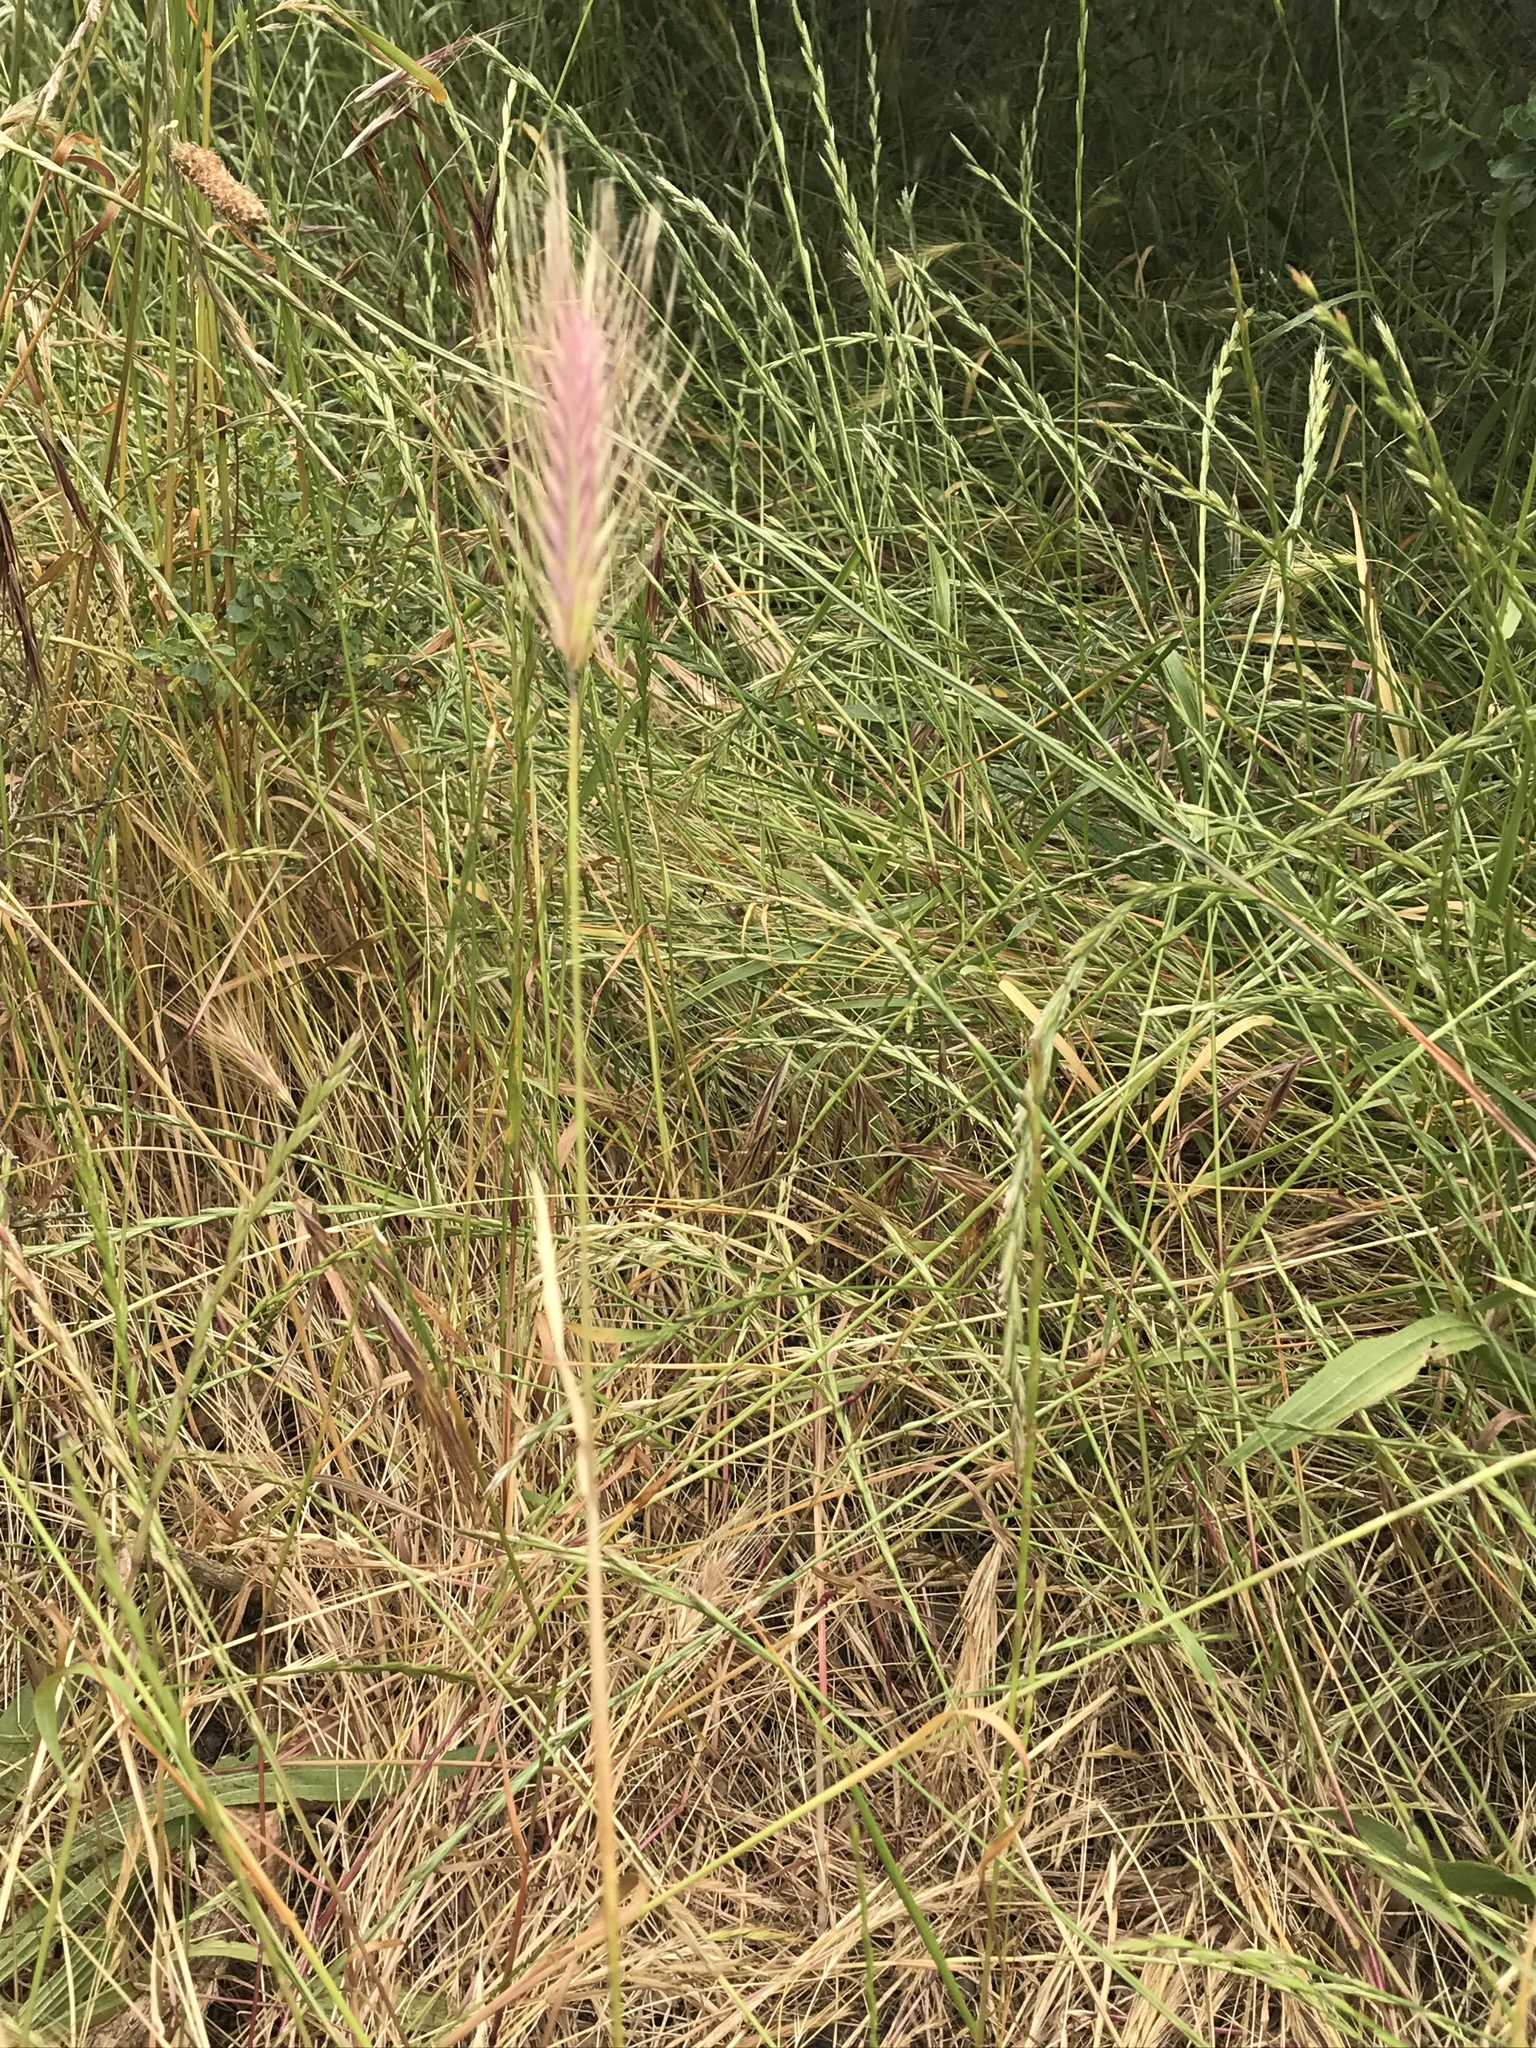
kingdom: Plantae
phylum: Tracheophyta
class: Liliopsida
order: Poales
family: Poaceae
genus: Hordeum
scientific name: Hordeum murinum
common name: Wall barley
